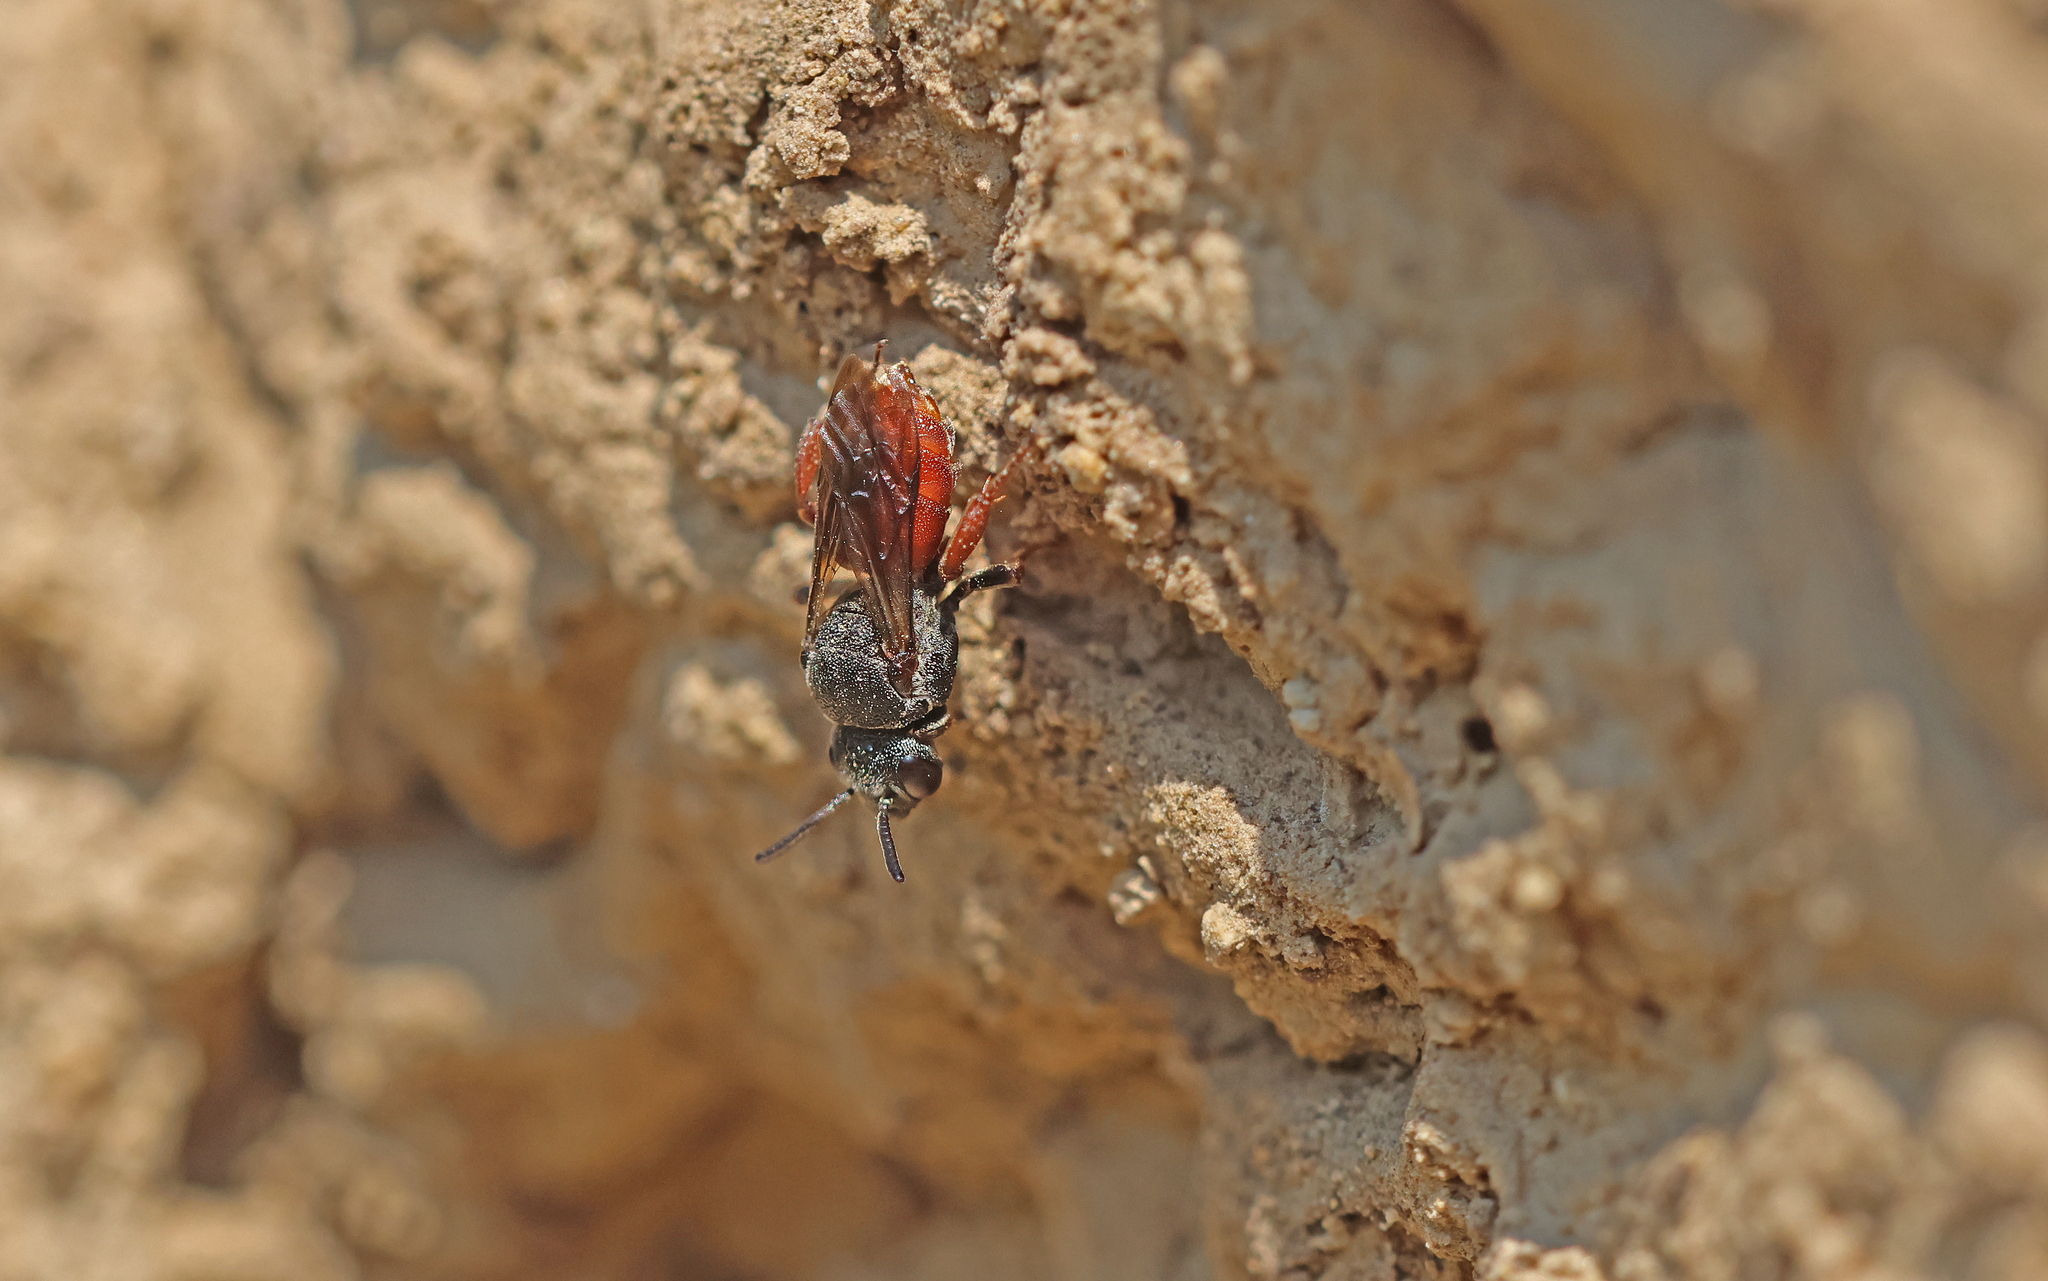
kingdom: Animalia
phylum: Arthropoda
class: Insecta
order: Hymenoptera
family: Apidae
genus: Biastes
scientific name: Biastes brevicornis
